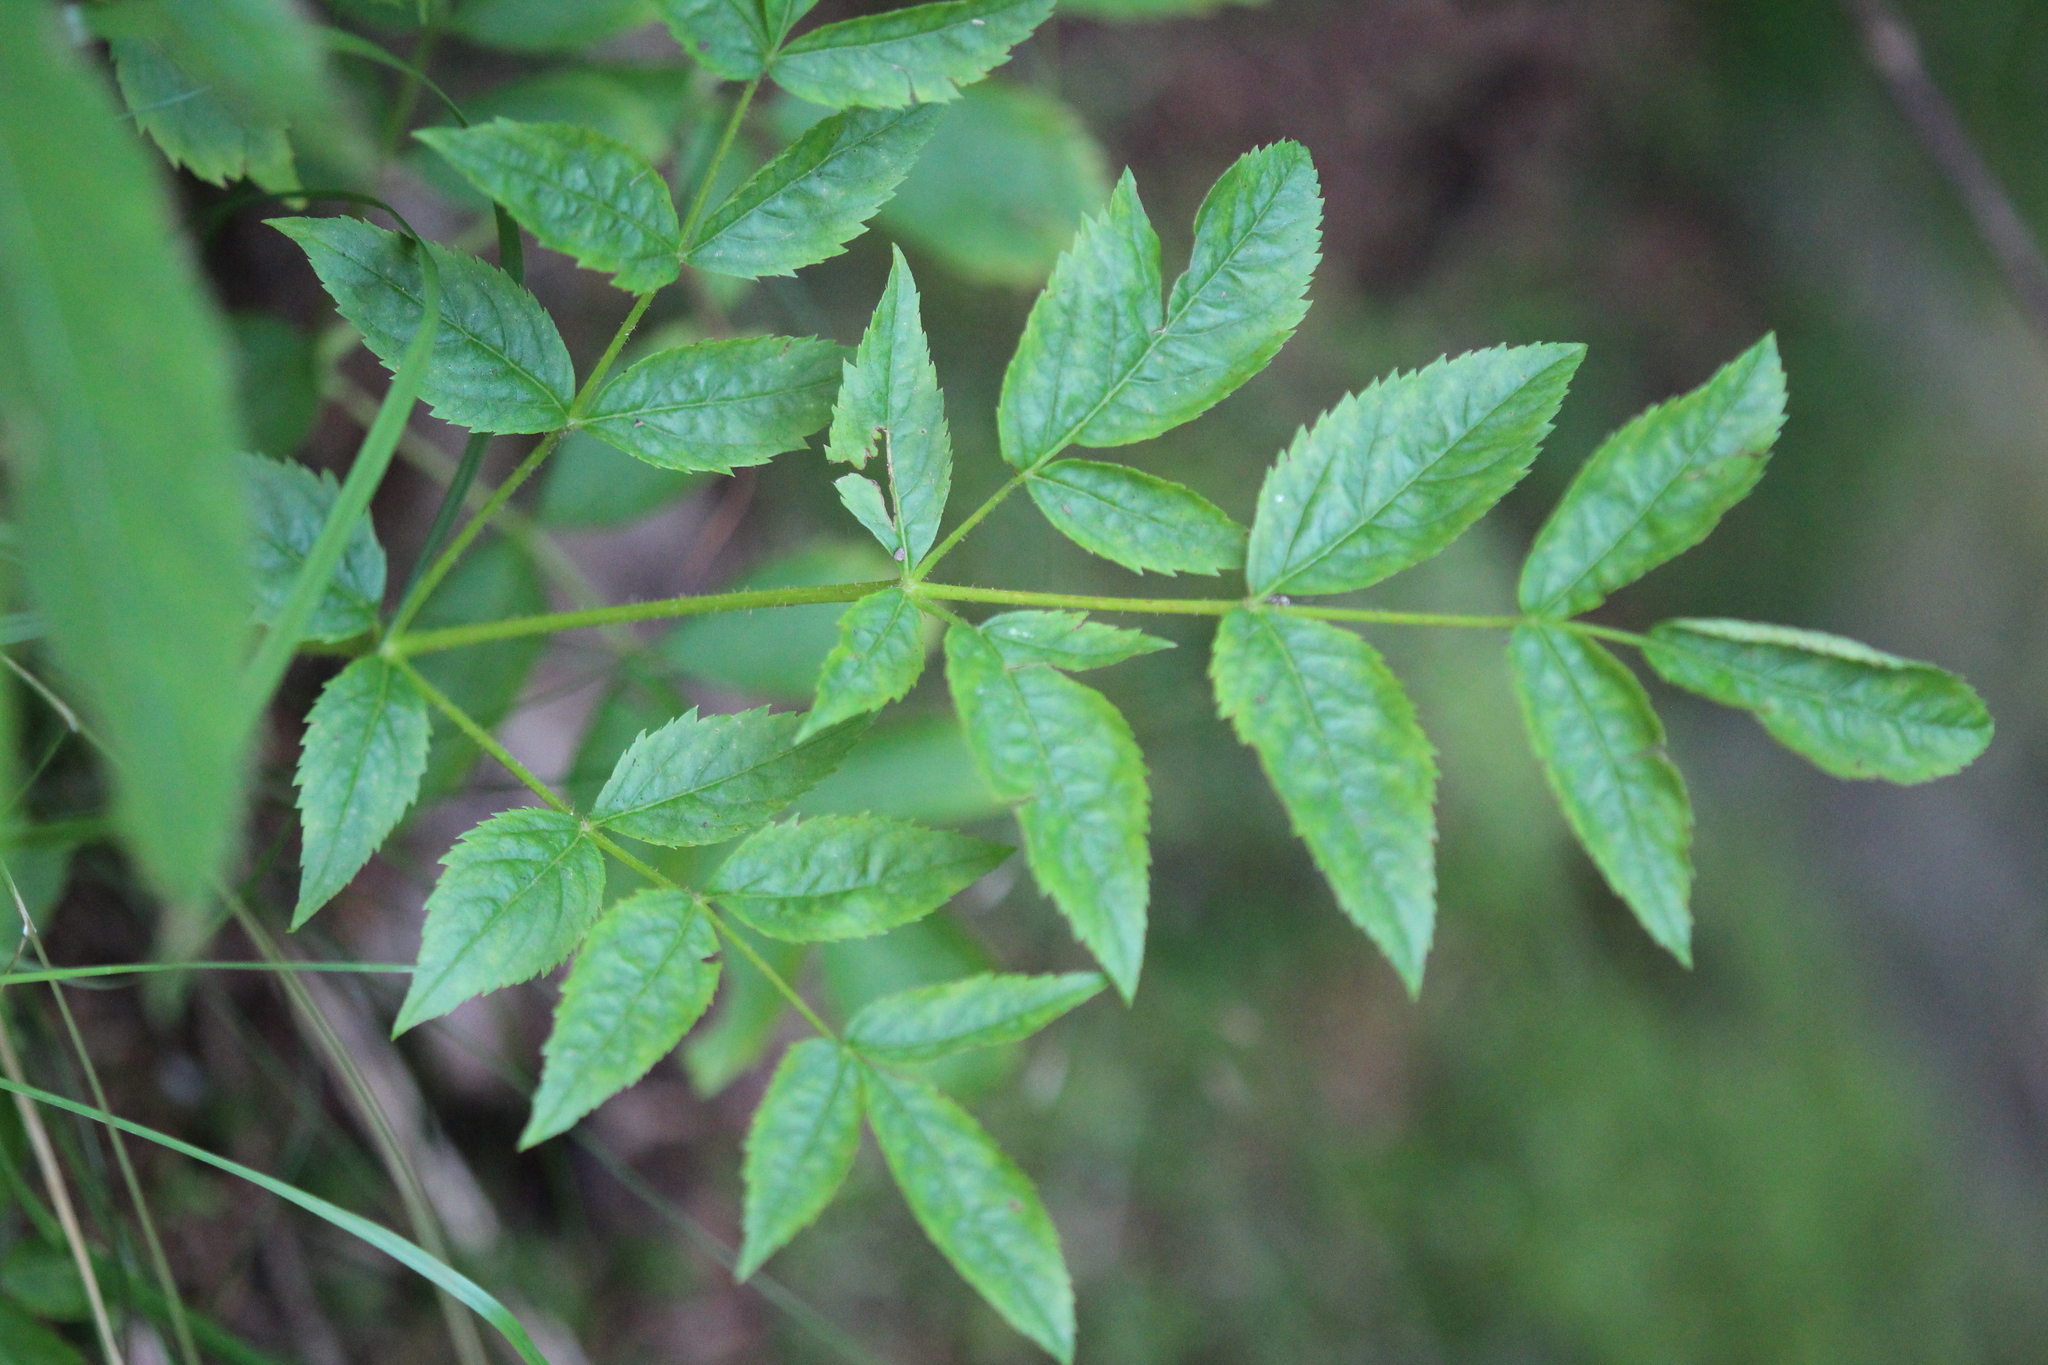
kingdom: Plantae
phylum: Tracheophyta
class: Magnoliopsida
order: Apiales
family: Araliaceae
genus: Aralia
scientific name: Aralia hispida
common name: Bristly sarsaparilla
